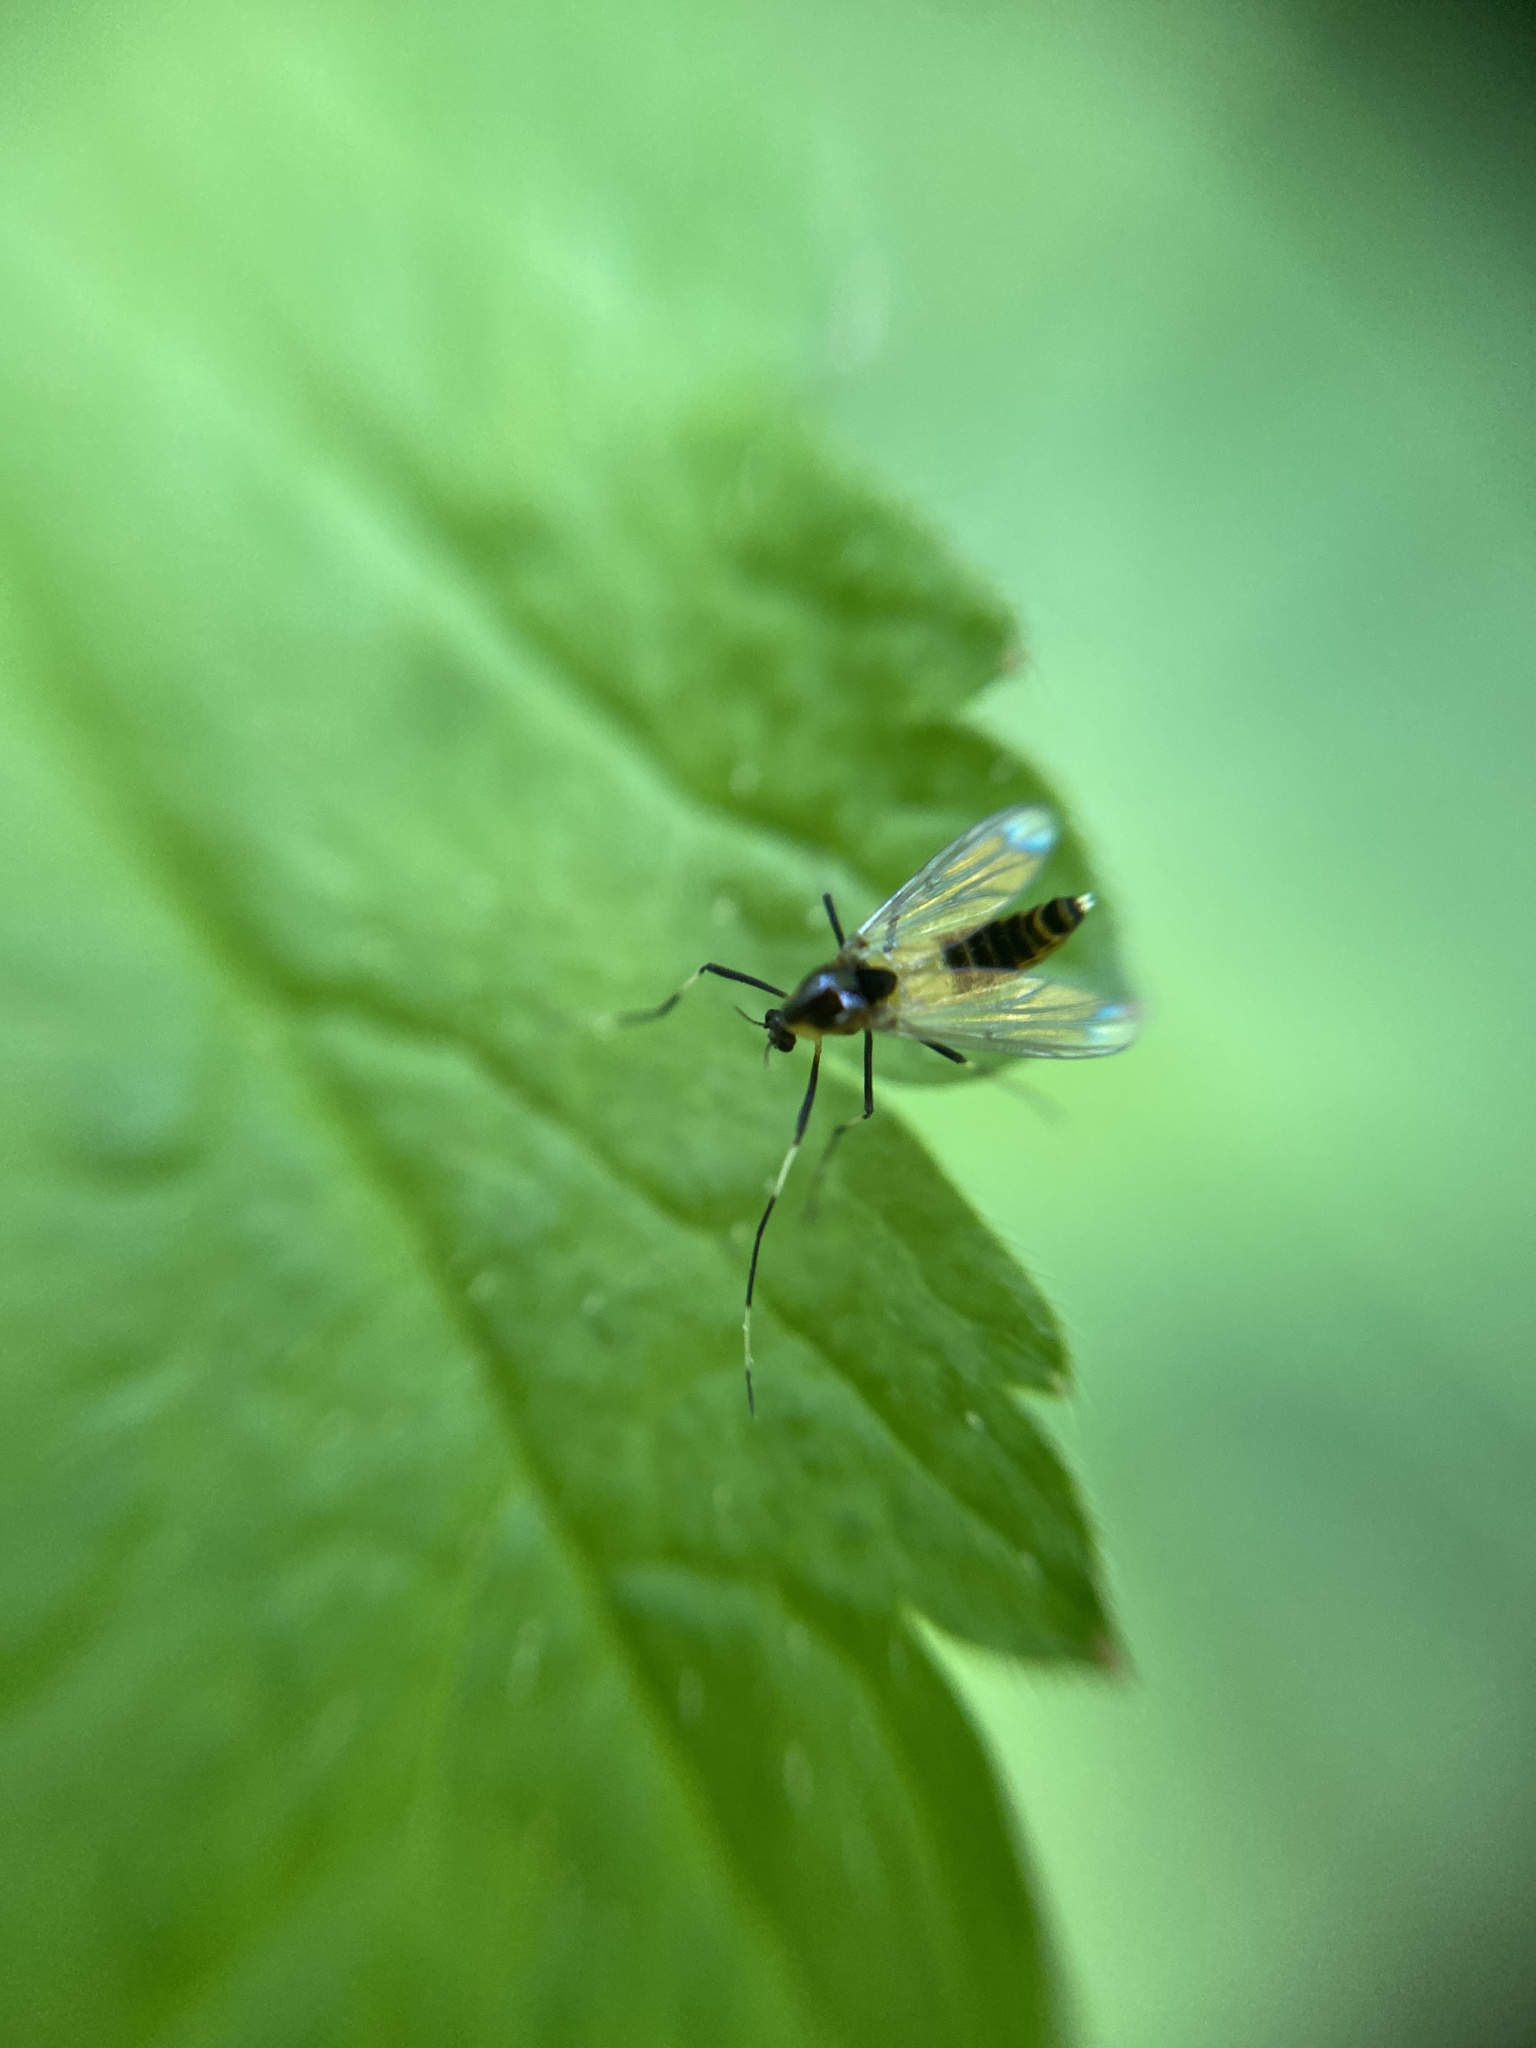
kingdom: Animalia
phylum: Arthropoda
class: Insecta
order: Diptera
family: Chironomidae
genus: Cricotopus
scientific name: Cricotopus
